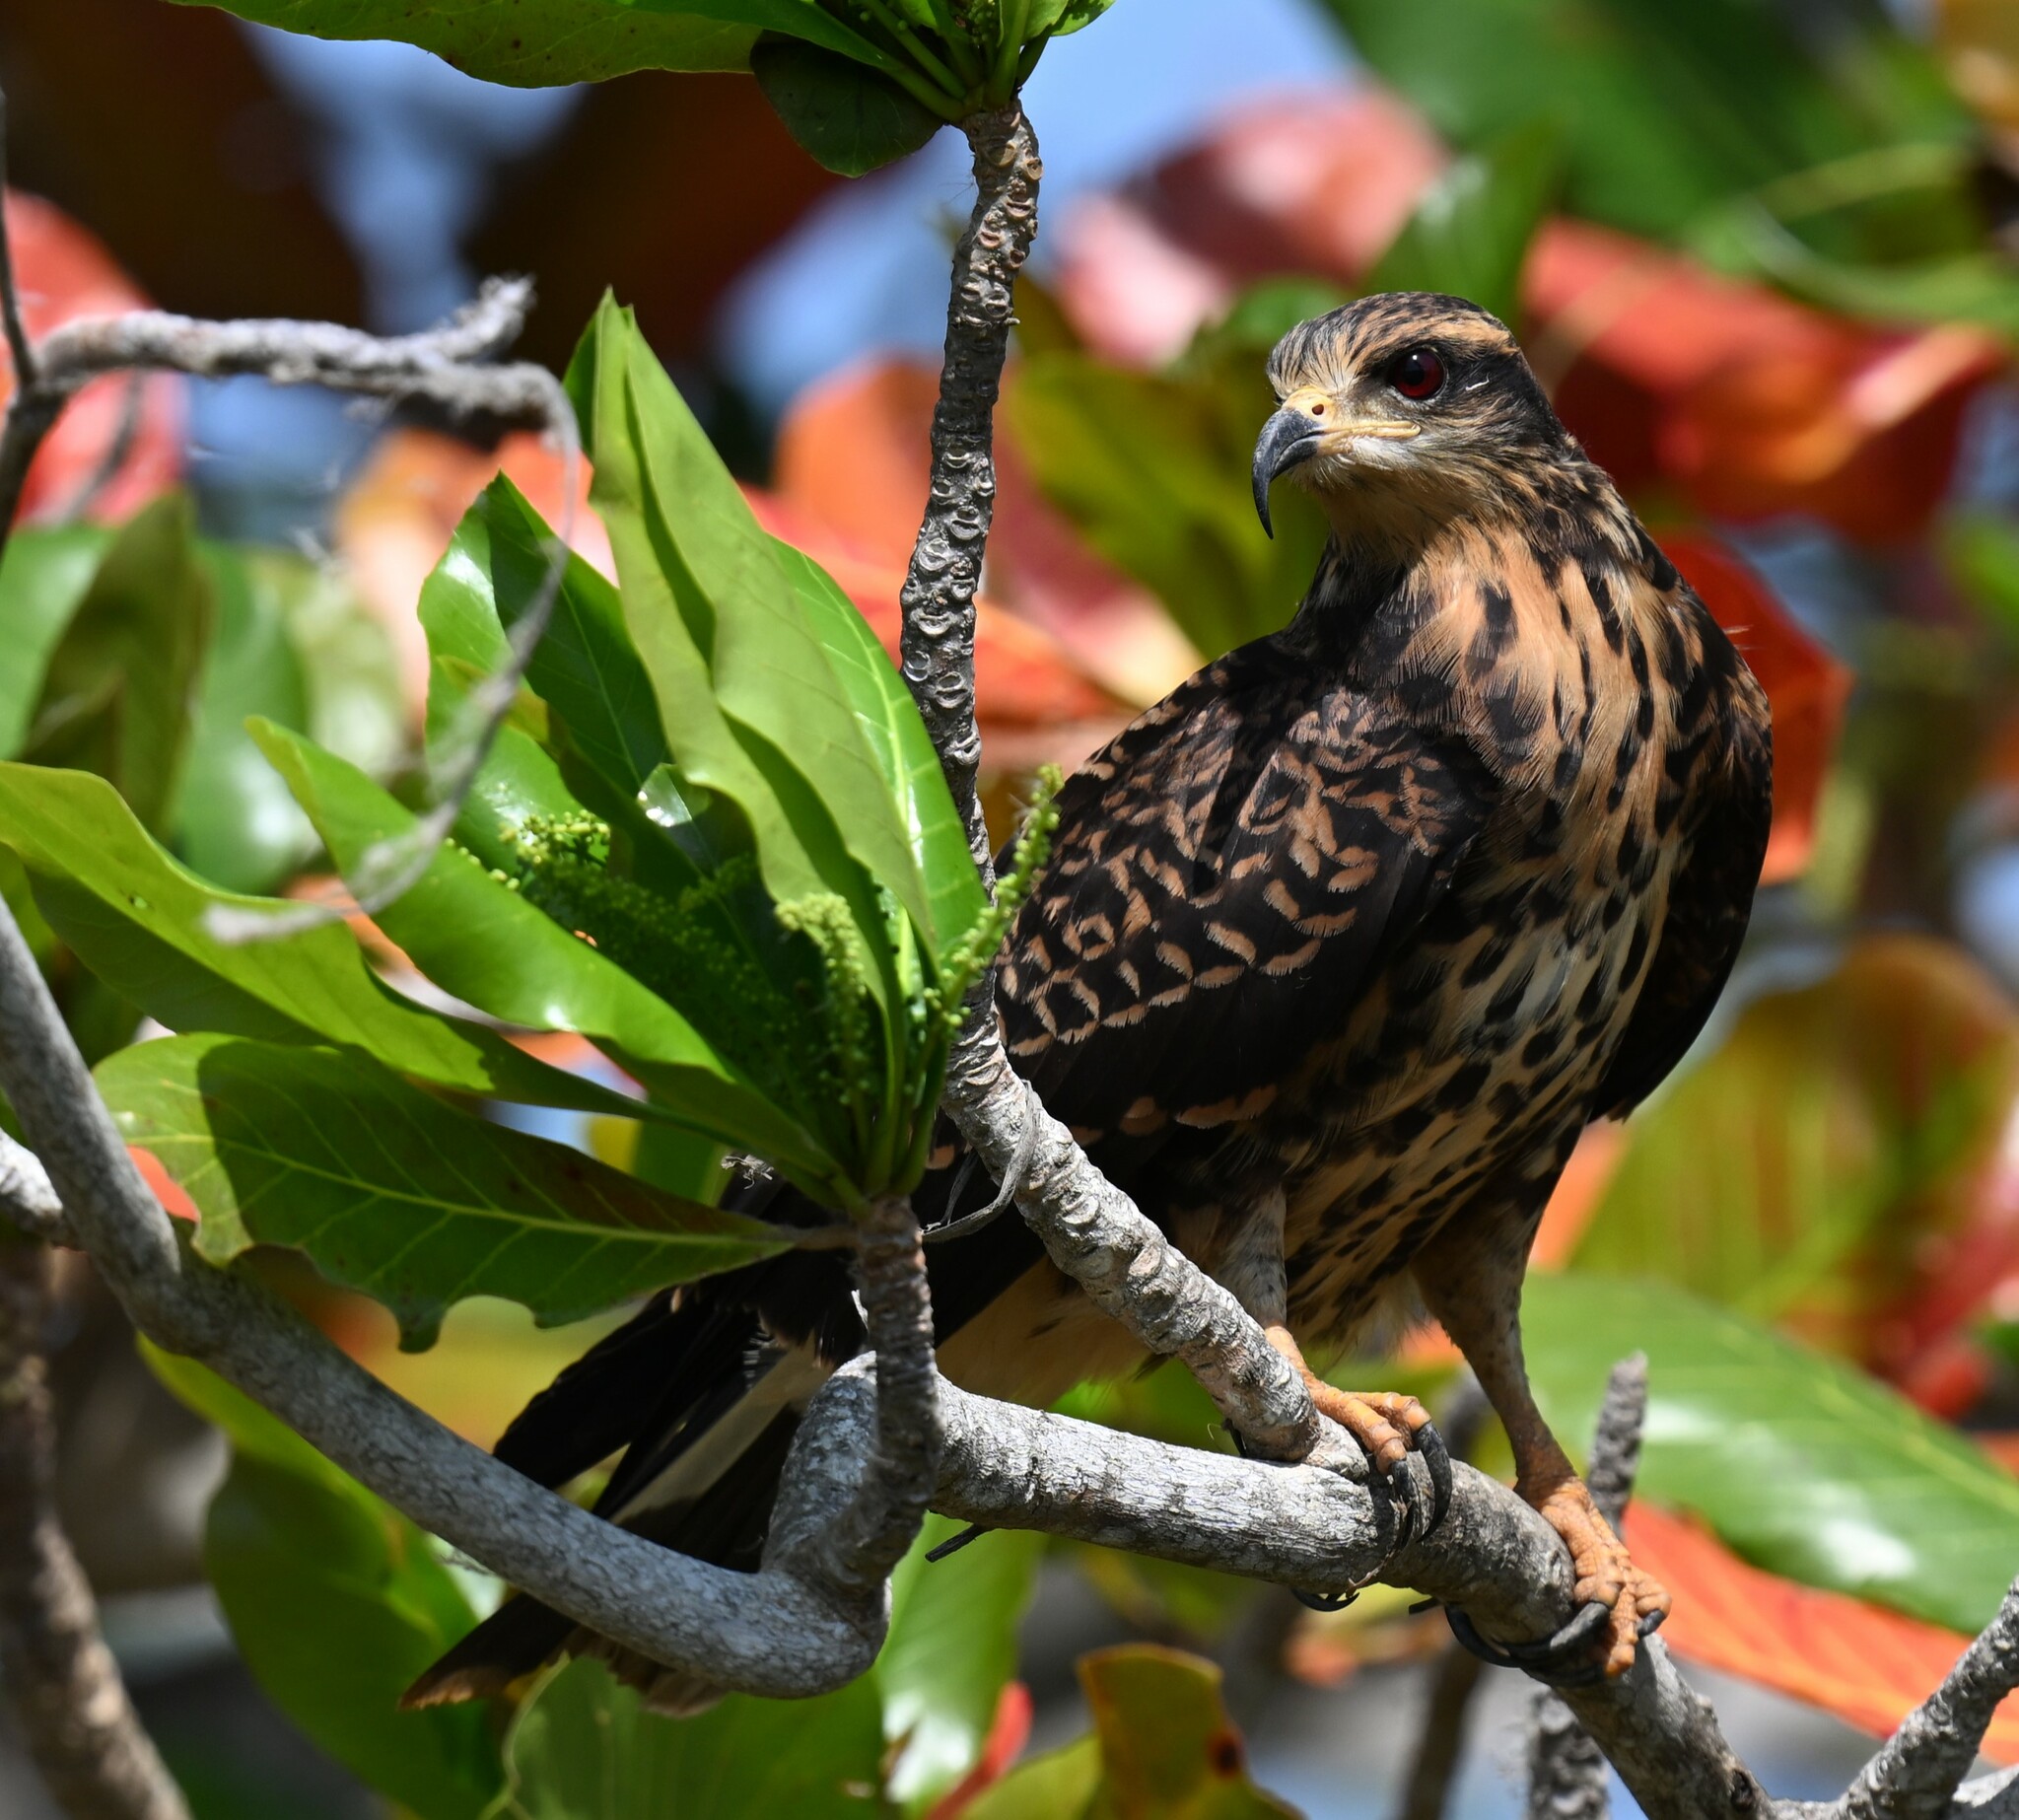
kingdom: Animalia
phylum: Chordata
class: Aves
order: Accipitriformes
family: Accipitridae
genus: Rostrhamus
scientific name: Rostrhamus sociabilis
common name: Snail kite
